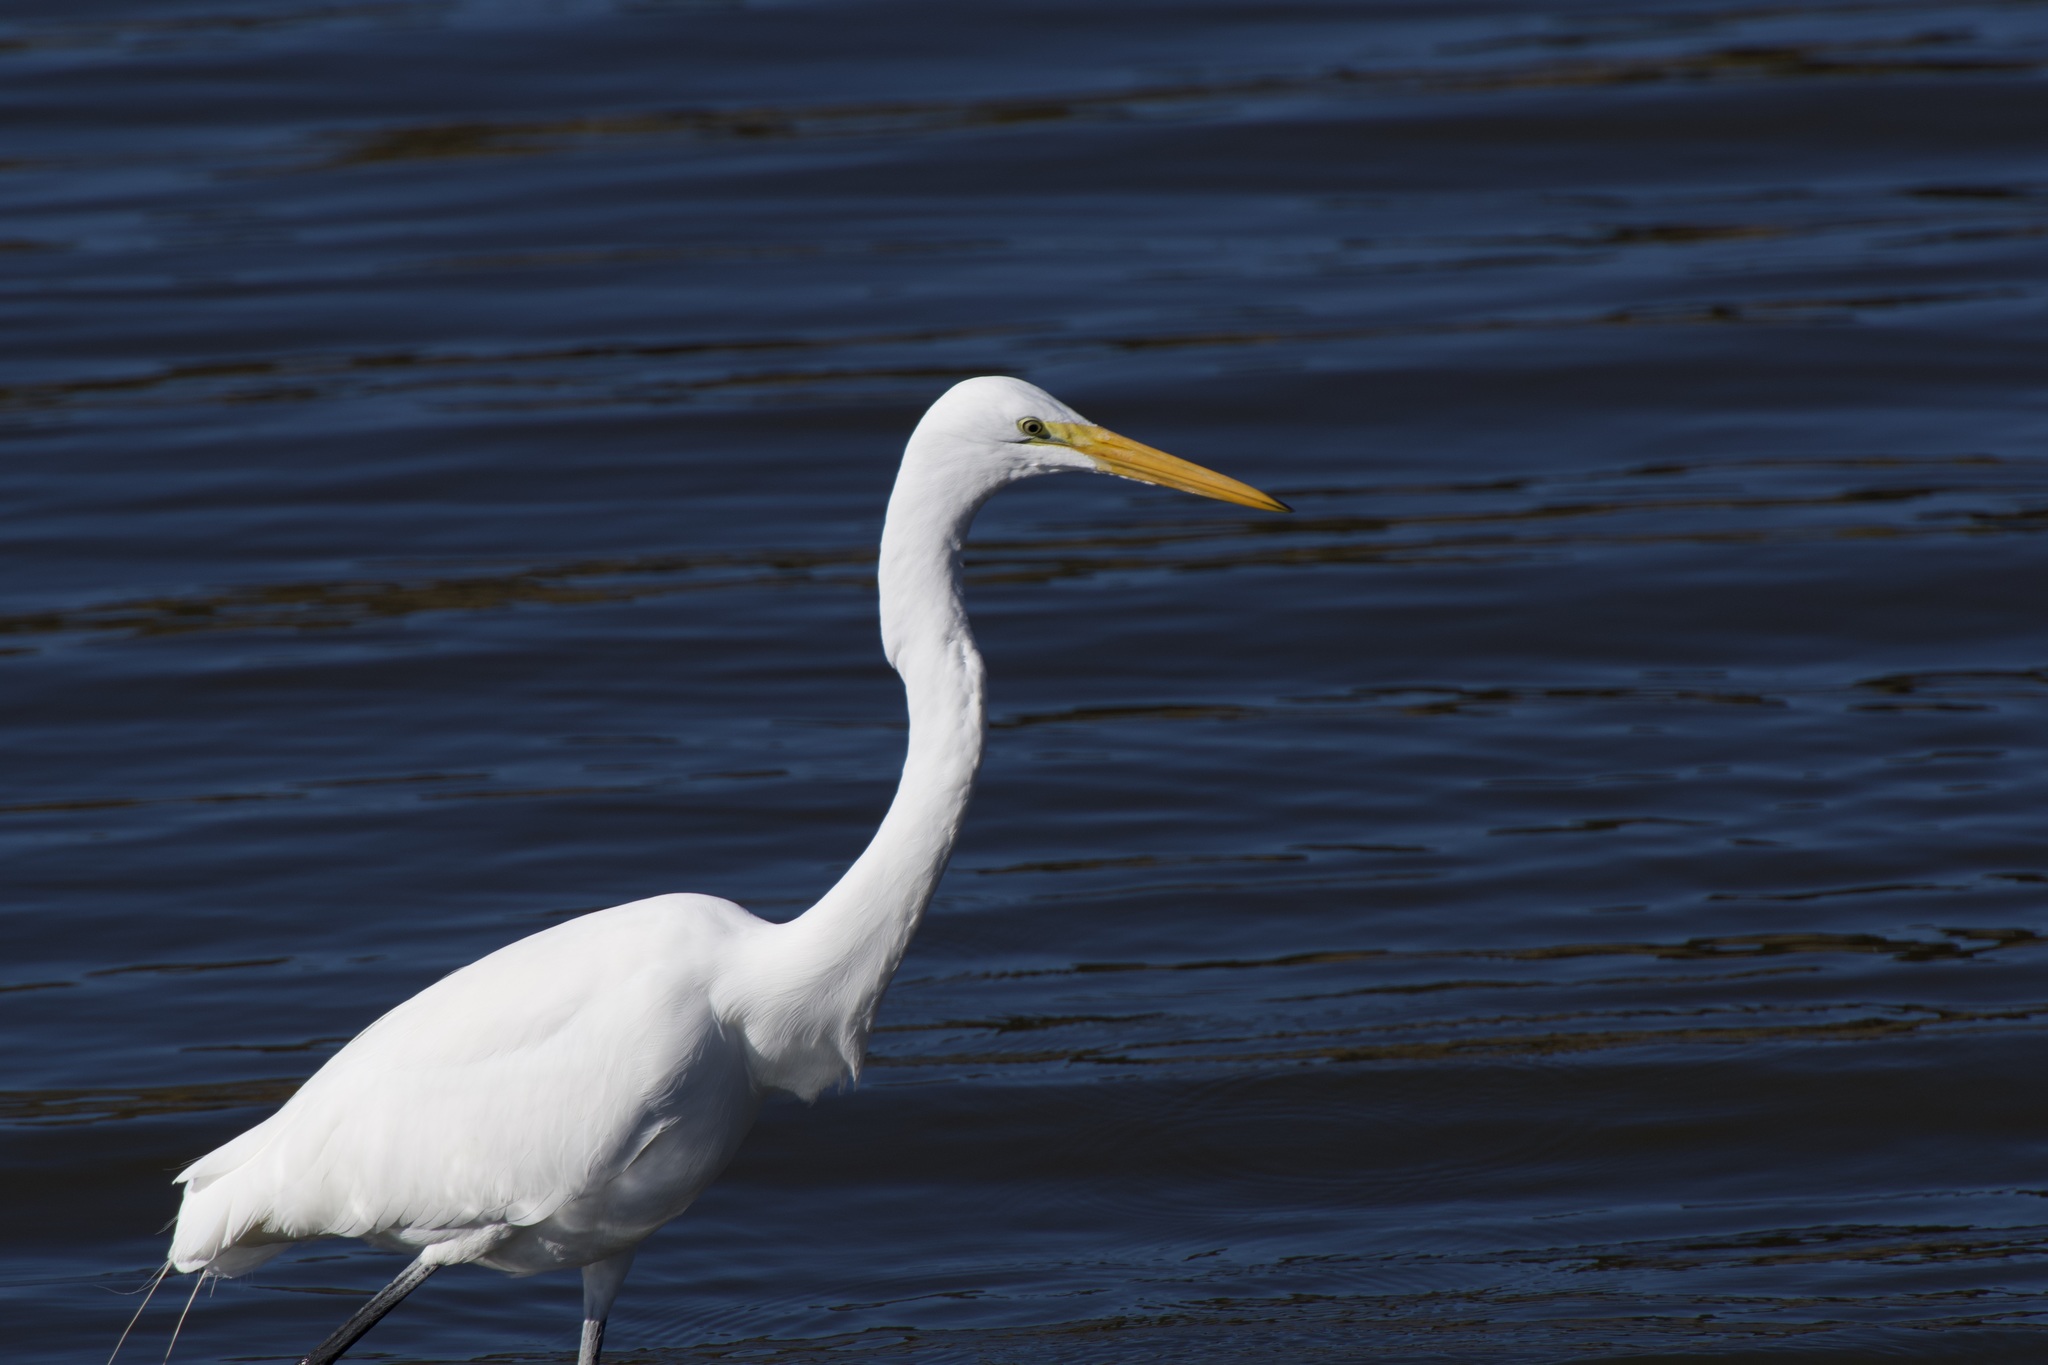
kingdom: Animalia
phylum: Chordata
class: Aves
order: Pelecaniformes
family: Ardeidae
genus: Ardea
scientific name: Ardea alba
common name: Great egret
